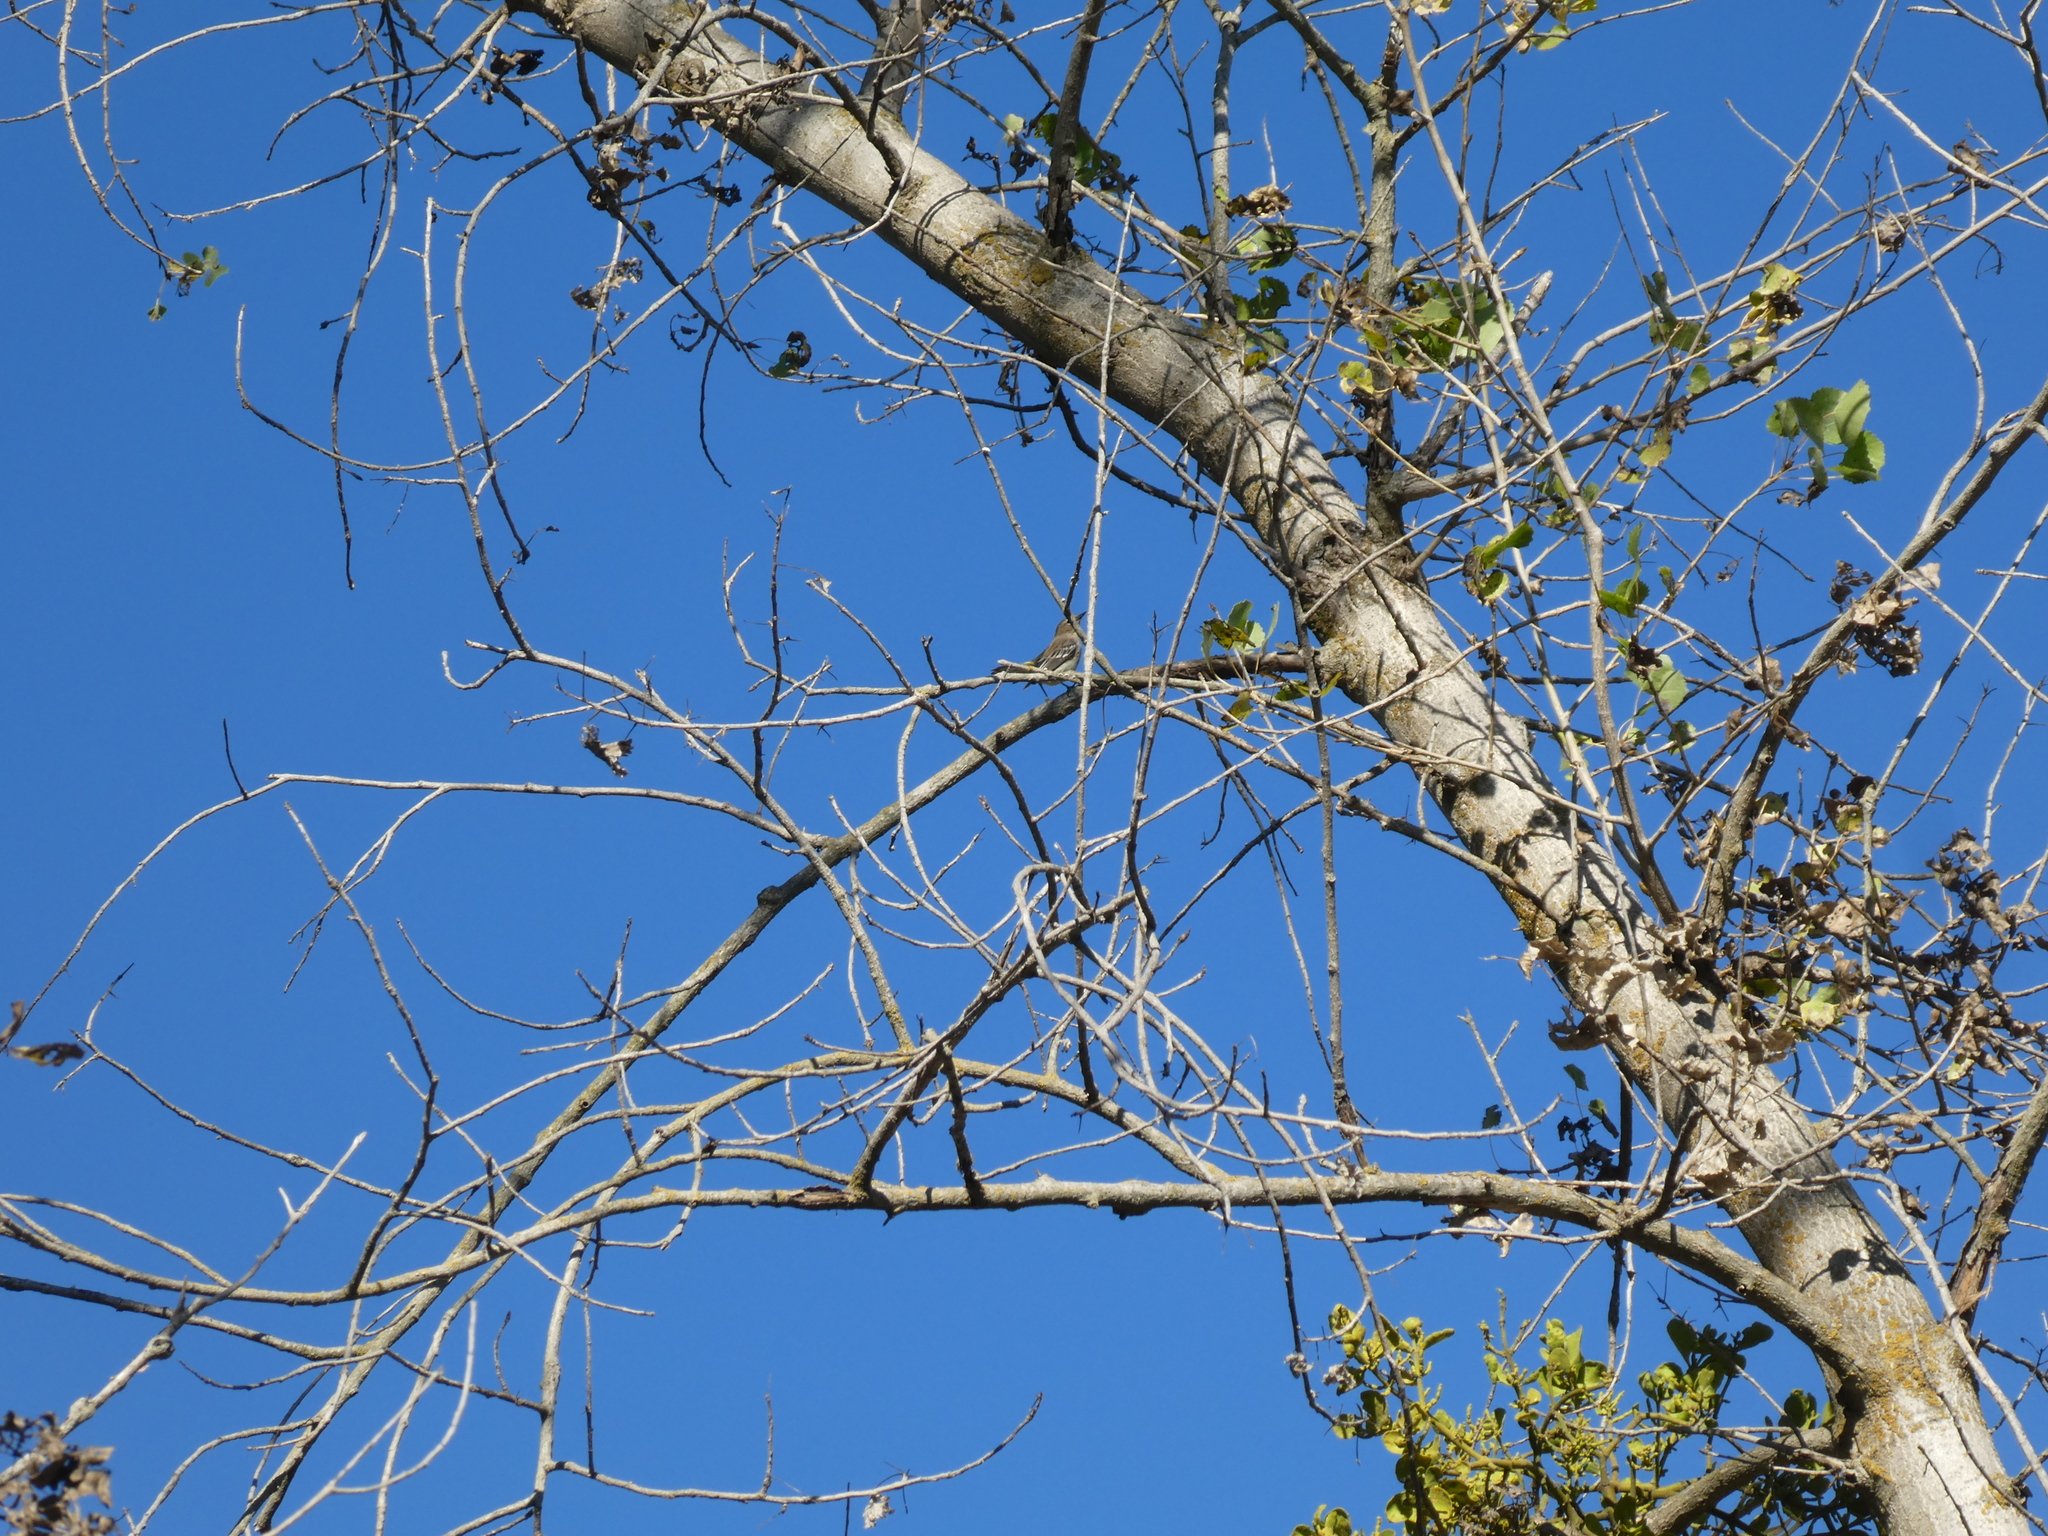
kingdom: Animalia
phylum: Chordata
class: Aves
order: Passeriformes
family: Parulidae
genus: Setophaga
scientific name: Setophaga coronata
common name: Myrtle warbler
